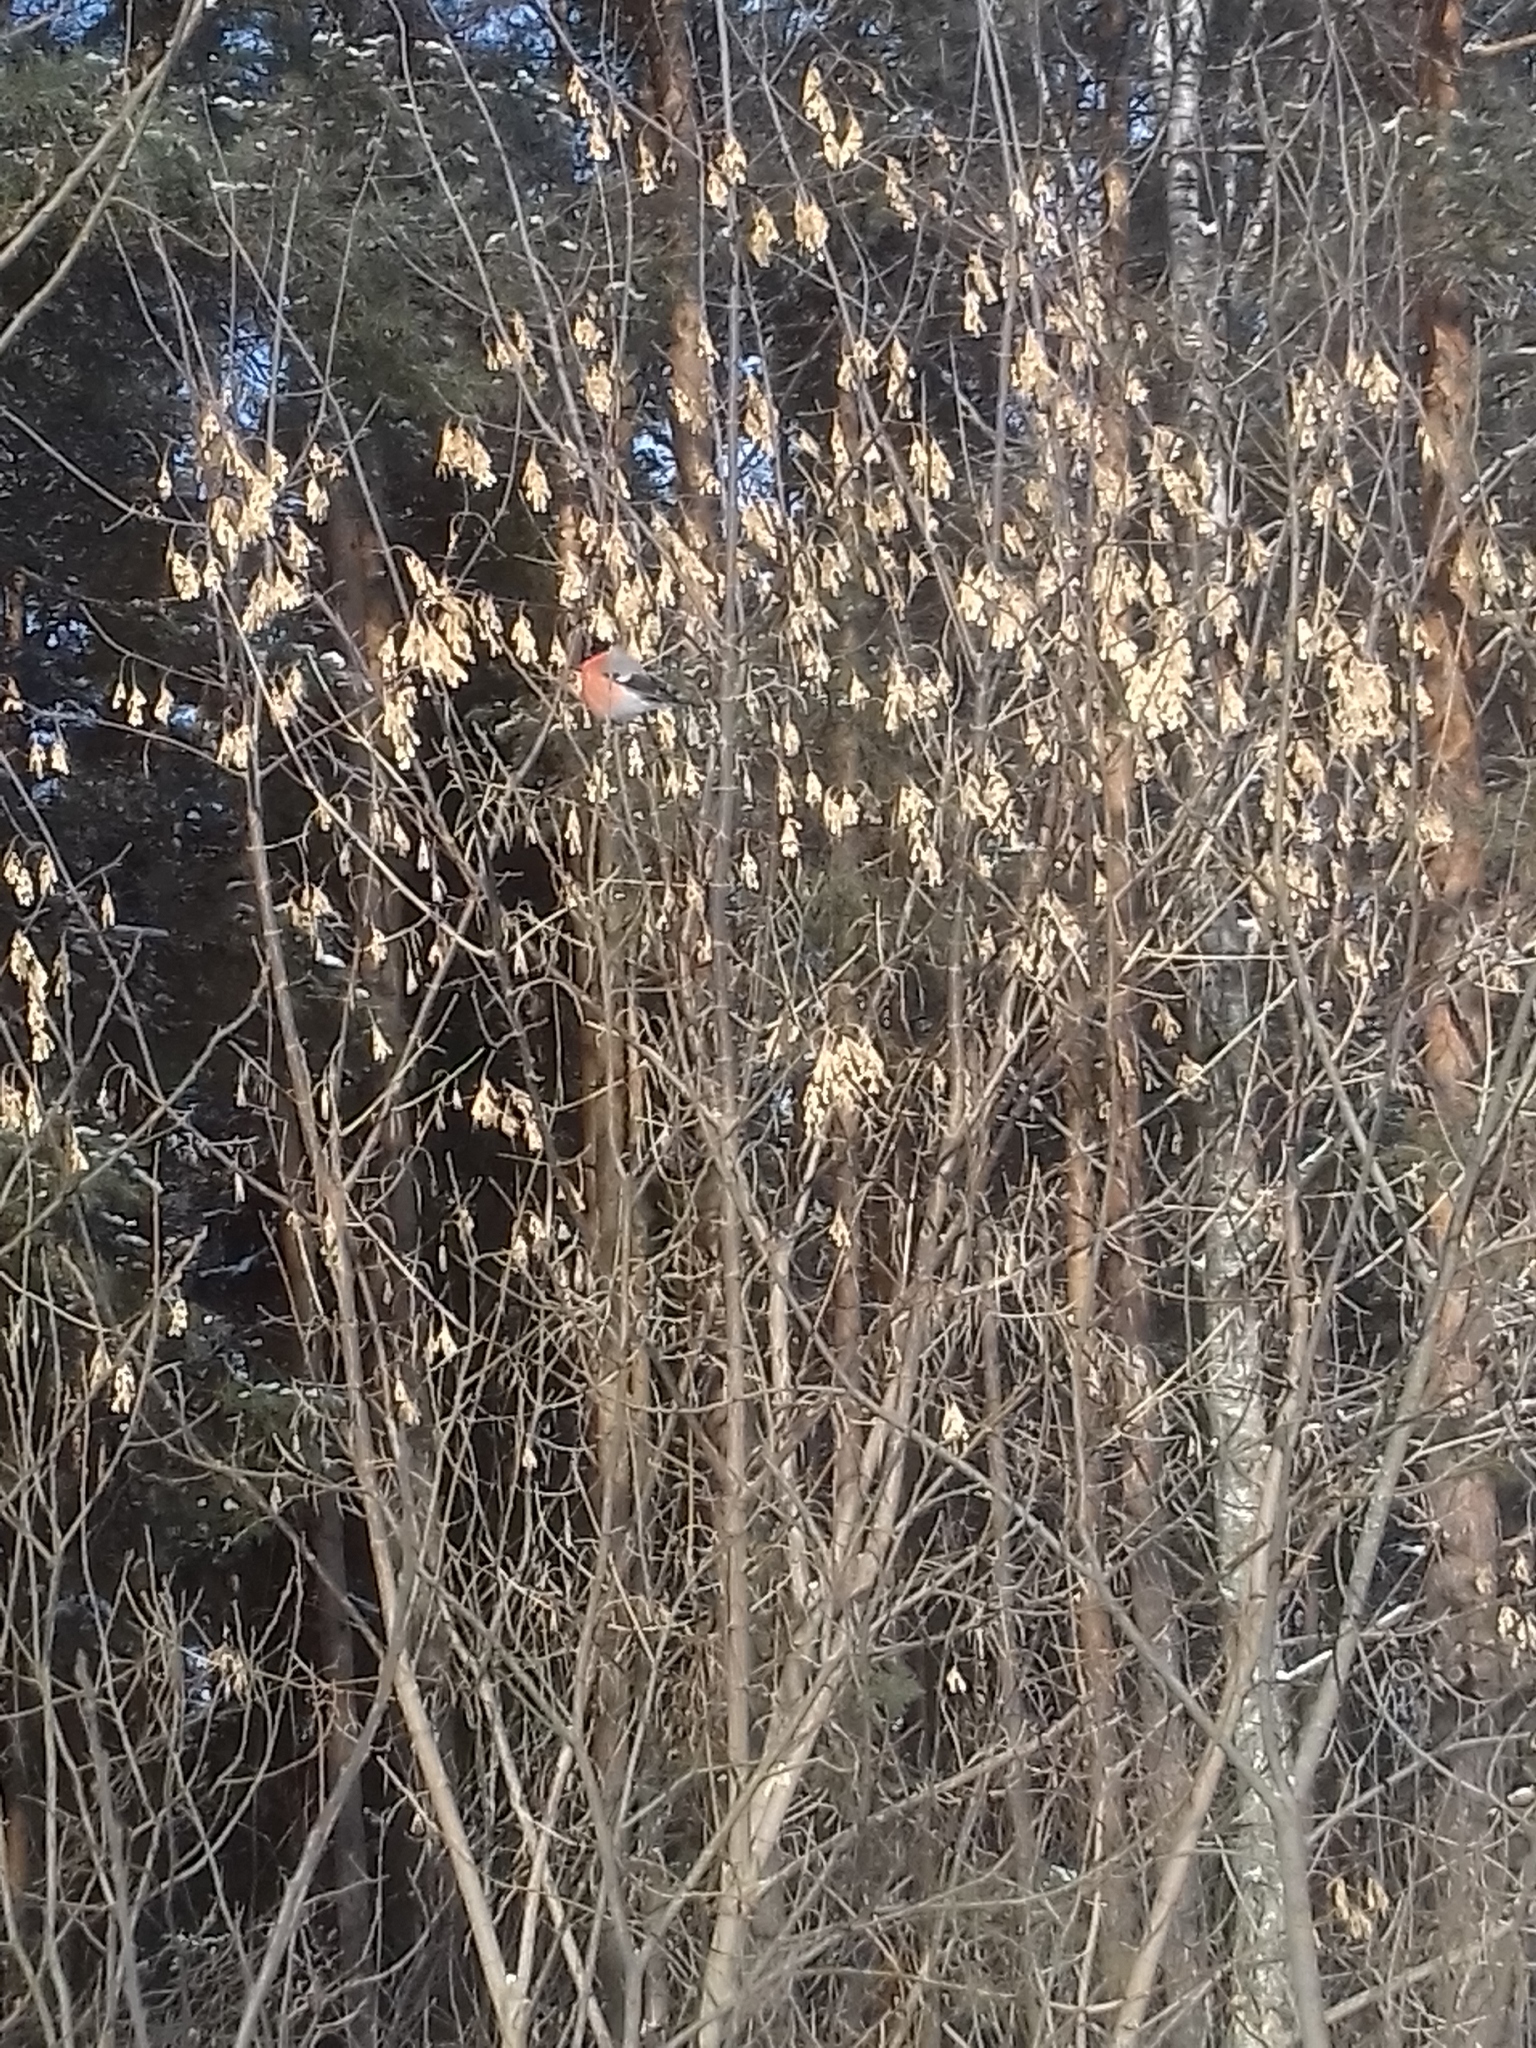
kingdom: Animalia
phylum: Chordata
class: Aves
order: Passeriformes
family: Fringillidae
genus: Pyrrhula
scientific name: Pyrrhula pyrrhula
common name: Eurasian bullfinch
